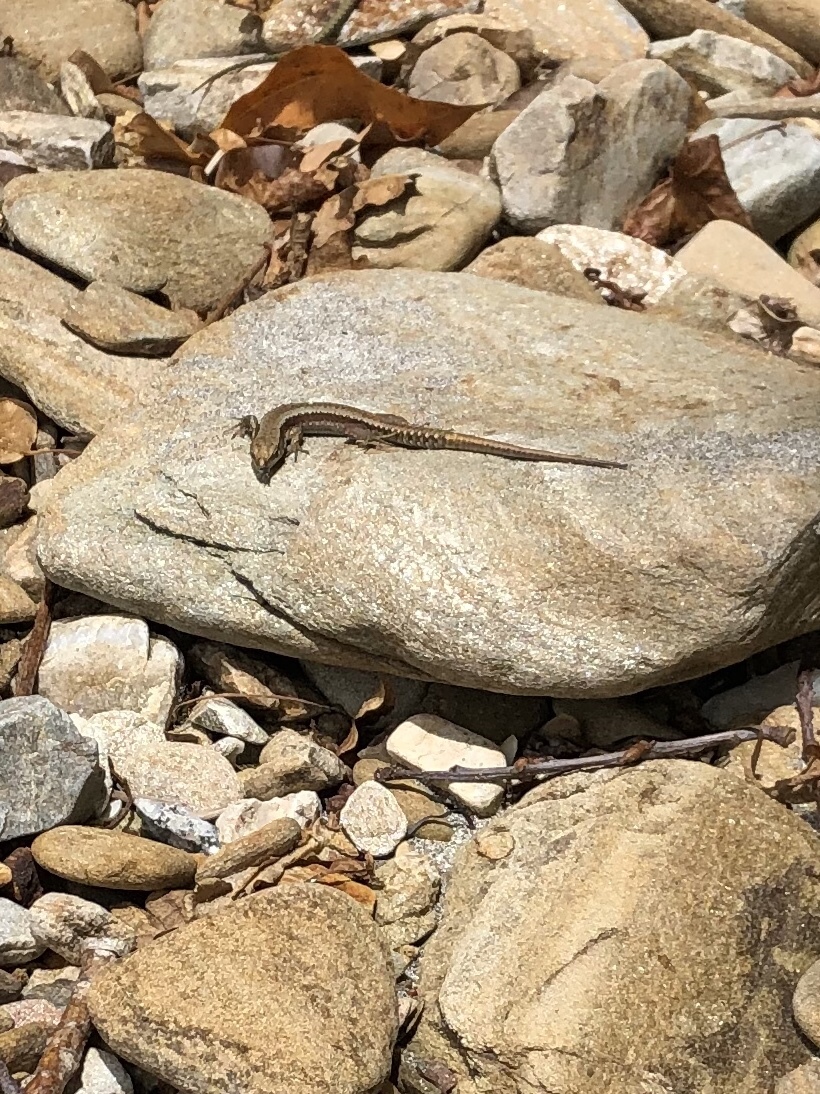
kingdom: Animalia
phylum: Chordata
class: Squamata
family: Lacertidae
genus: Iberolacerta
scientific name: Iberolacerta monticola
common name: Iberian mountain lizard
